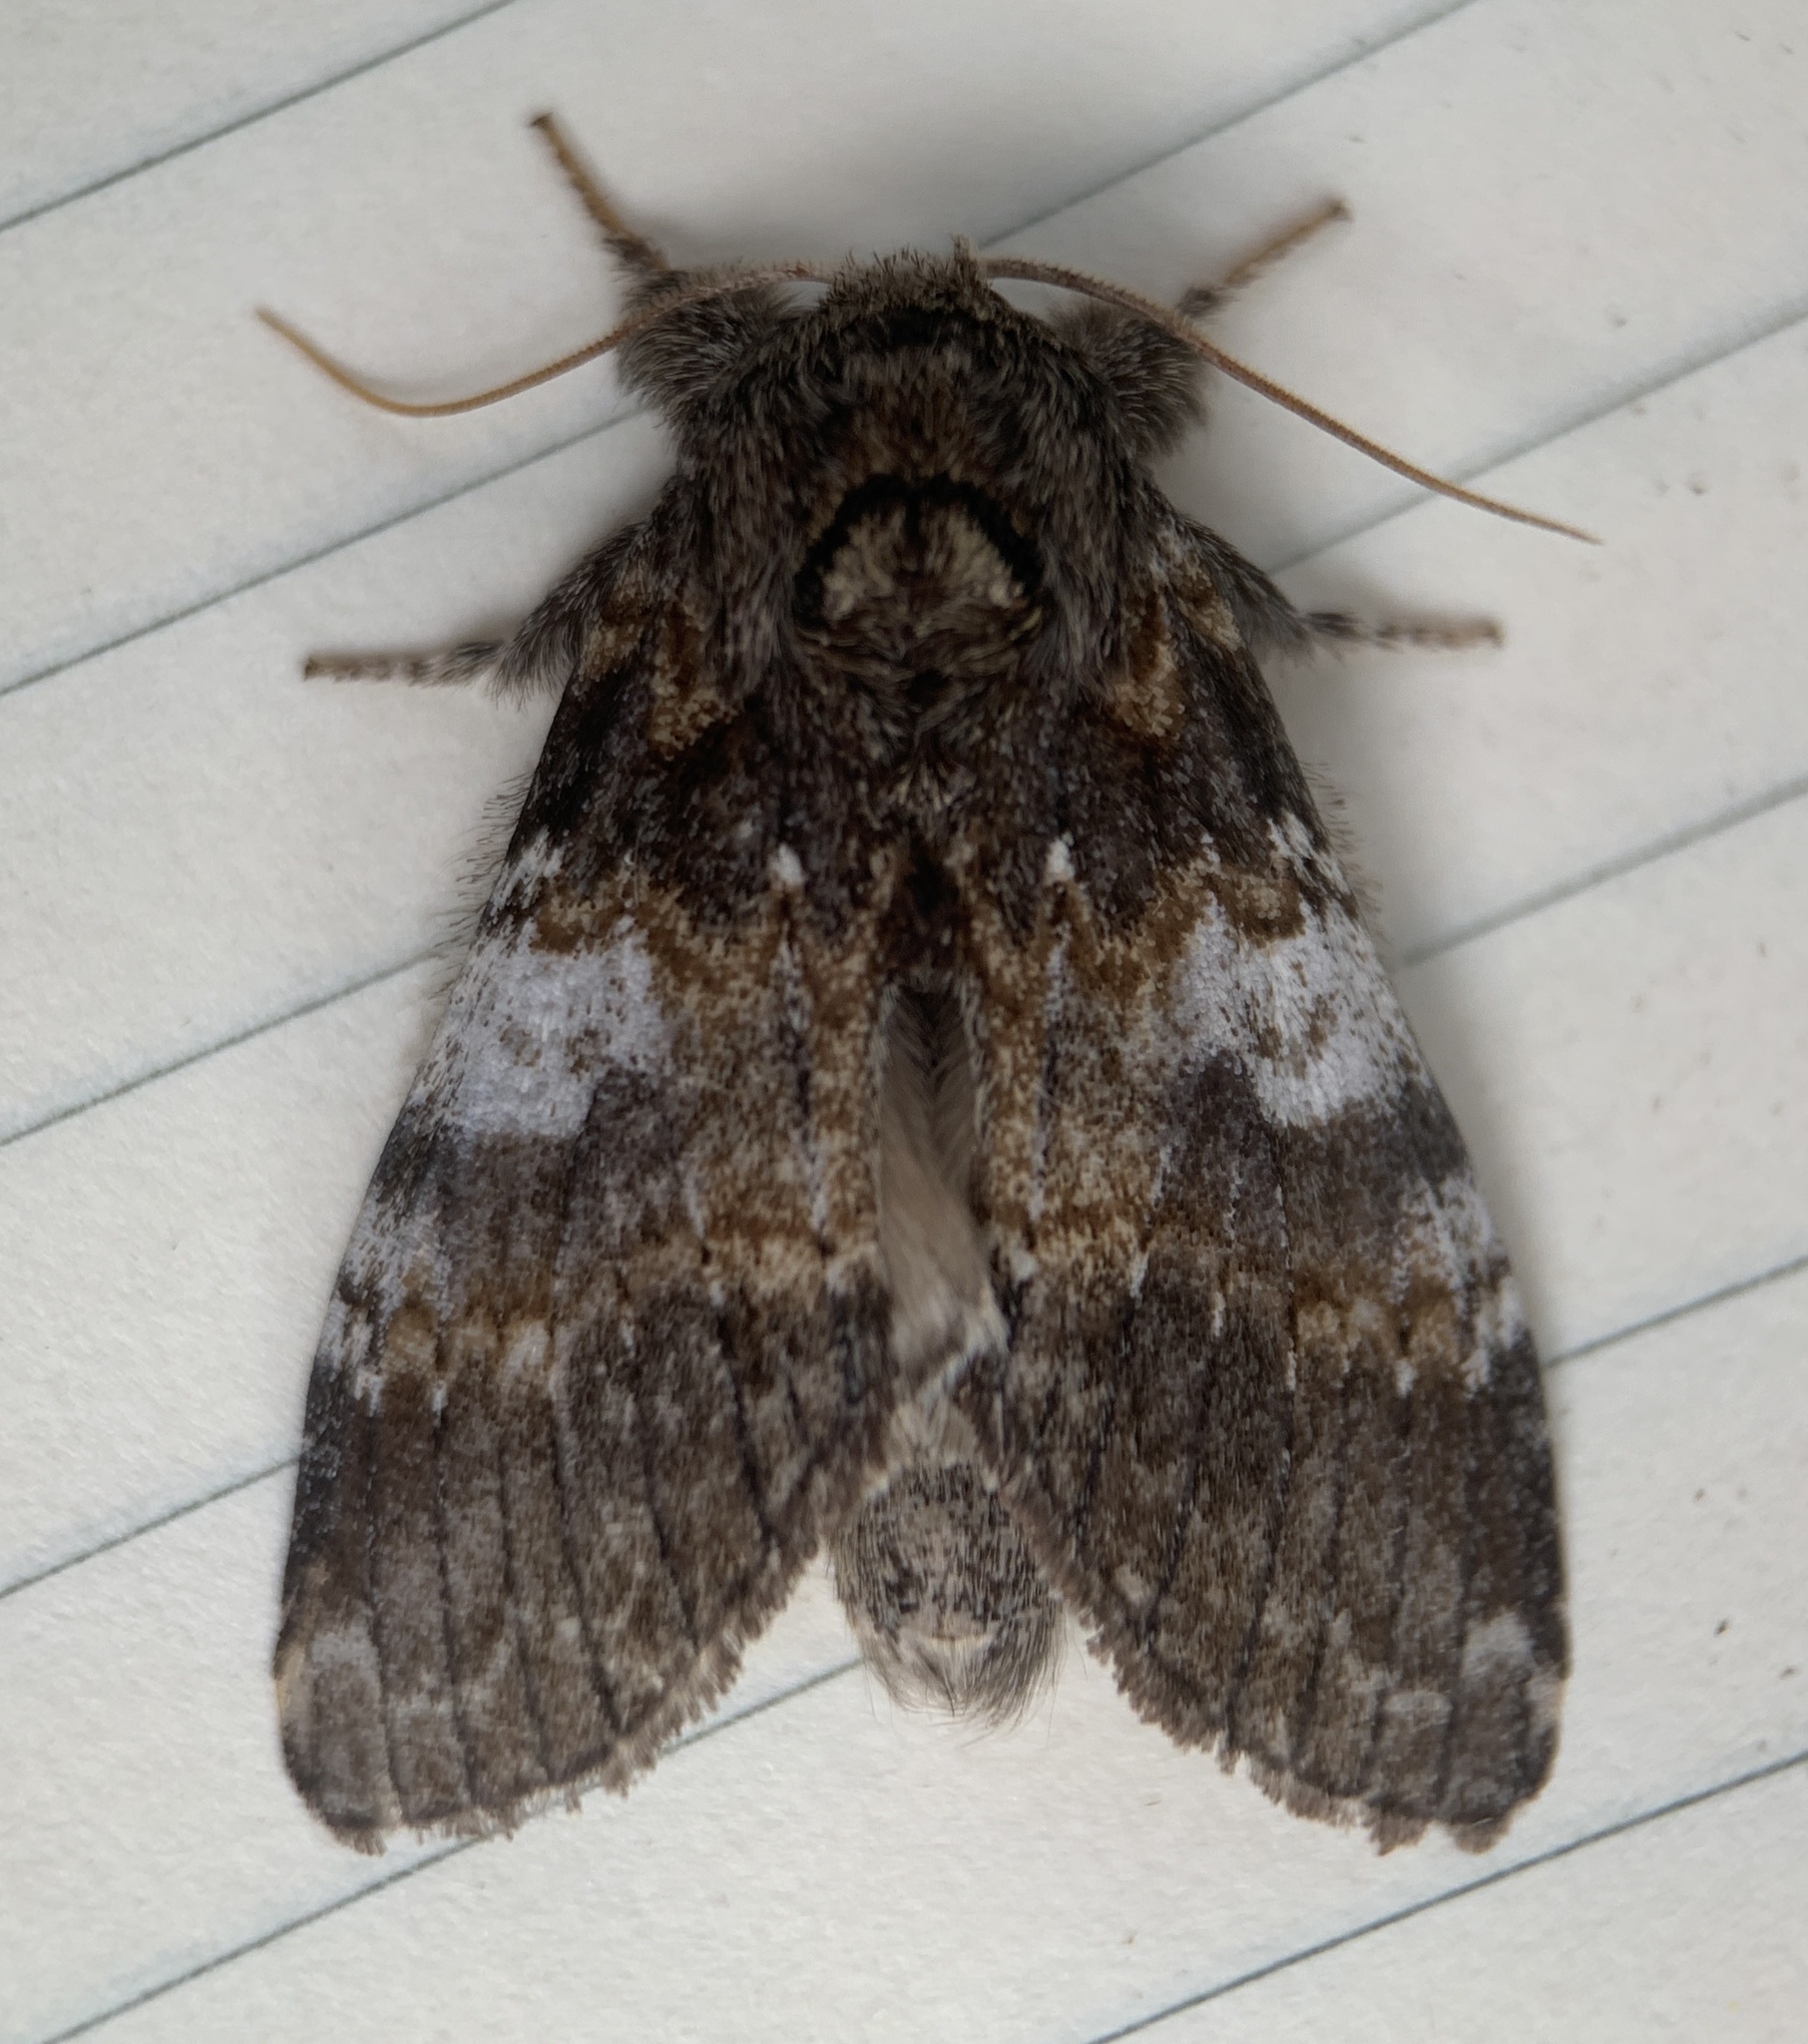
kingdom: Animalia
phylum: Arthropoda
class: Insecta
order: Lepidoptera
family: Notodontidae
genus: Peridea
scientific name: Peridea angulosa
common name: Angulose prominent
